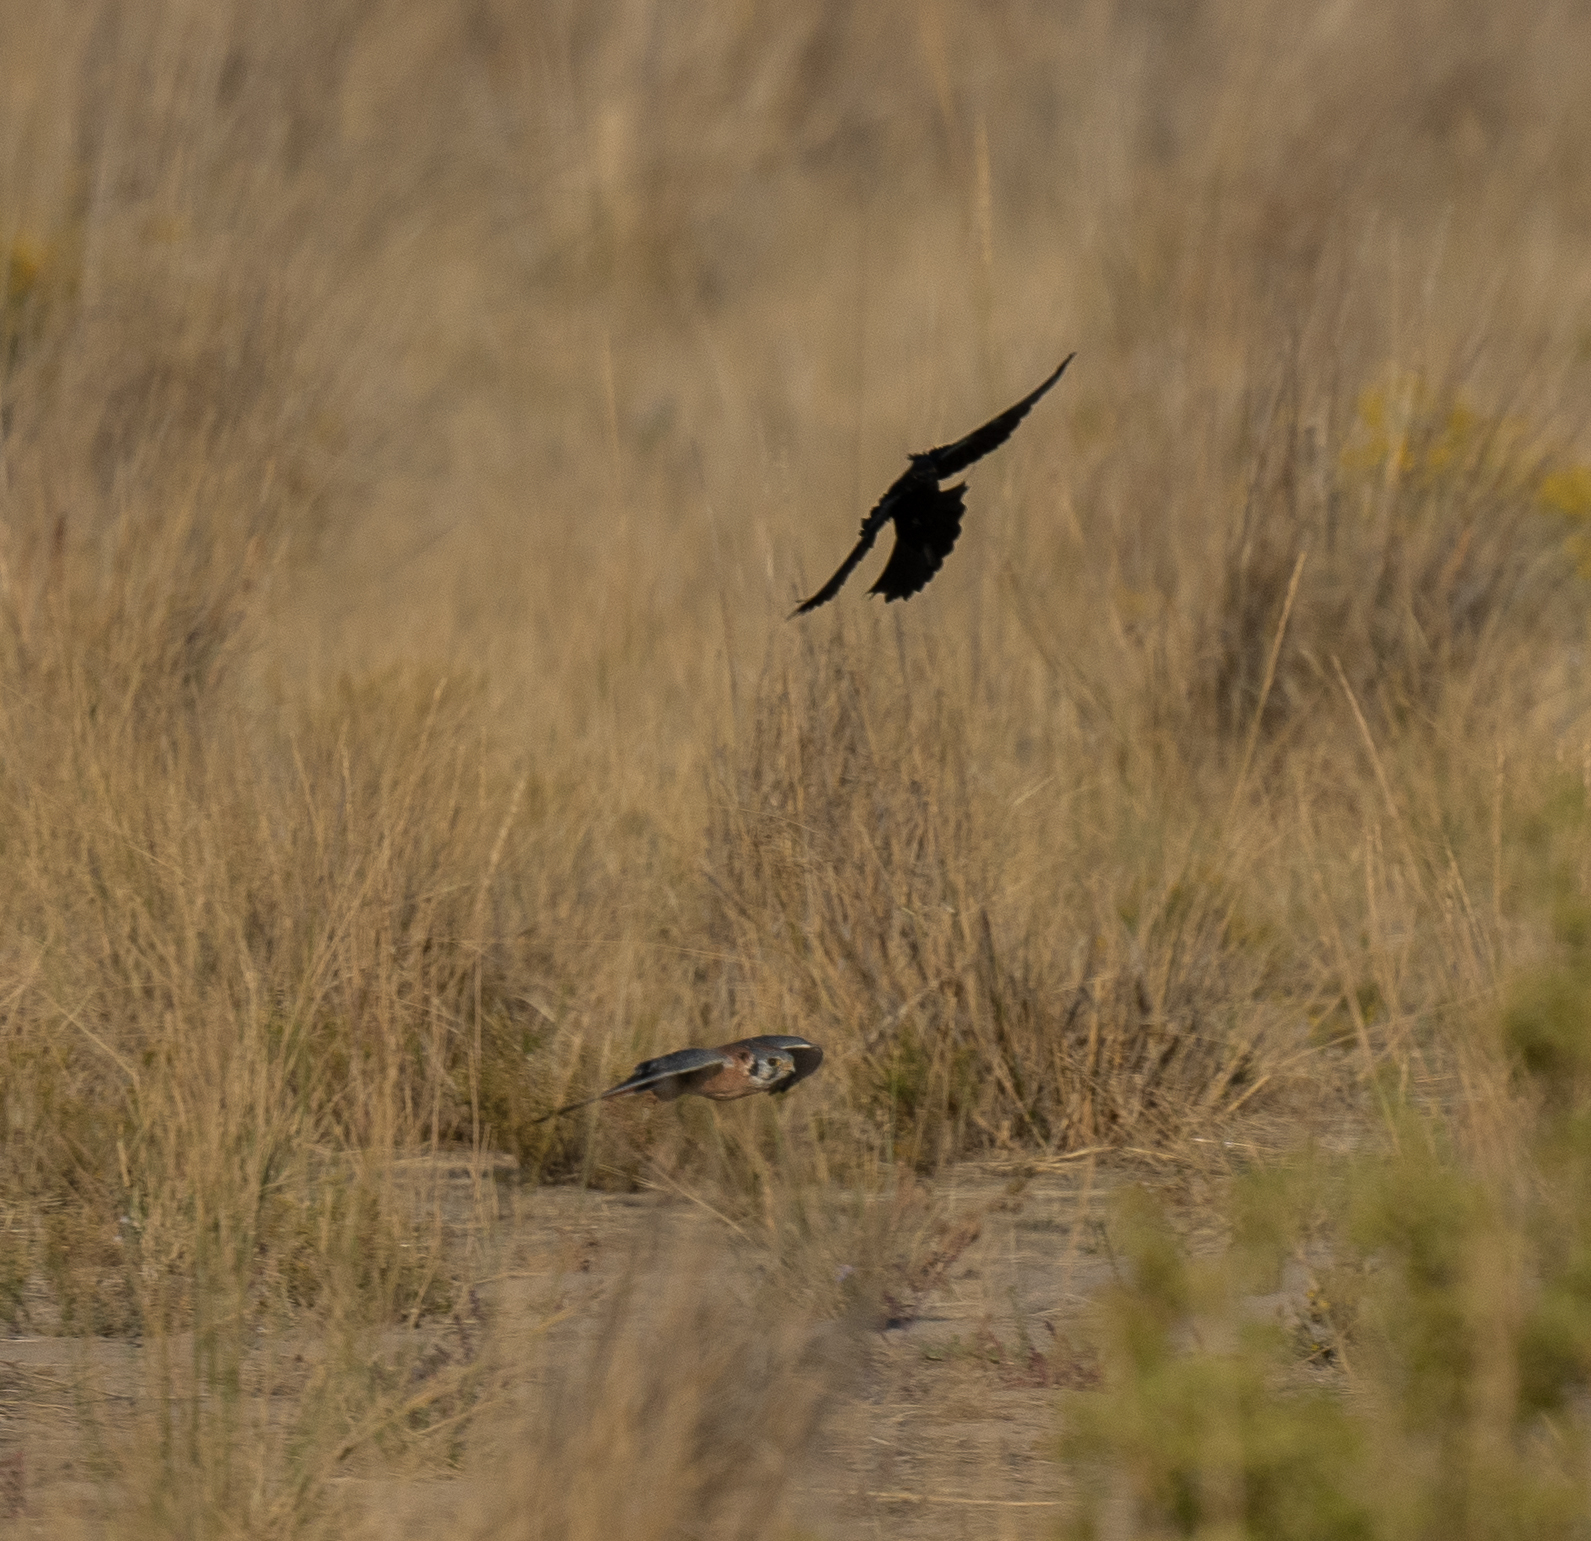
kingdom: Animalia
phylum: Chordata
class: Aves
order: Falconiformes
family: Falconidae
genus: Falco
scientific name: Falco sparverius
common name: American kestrel
